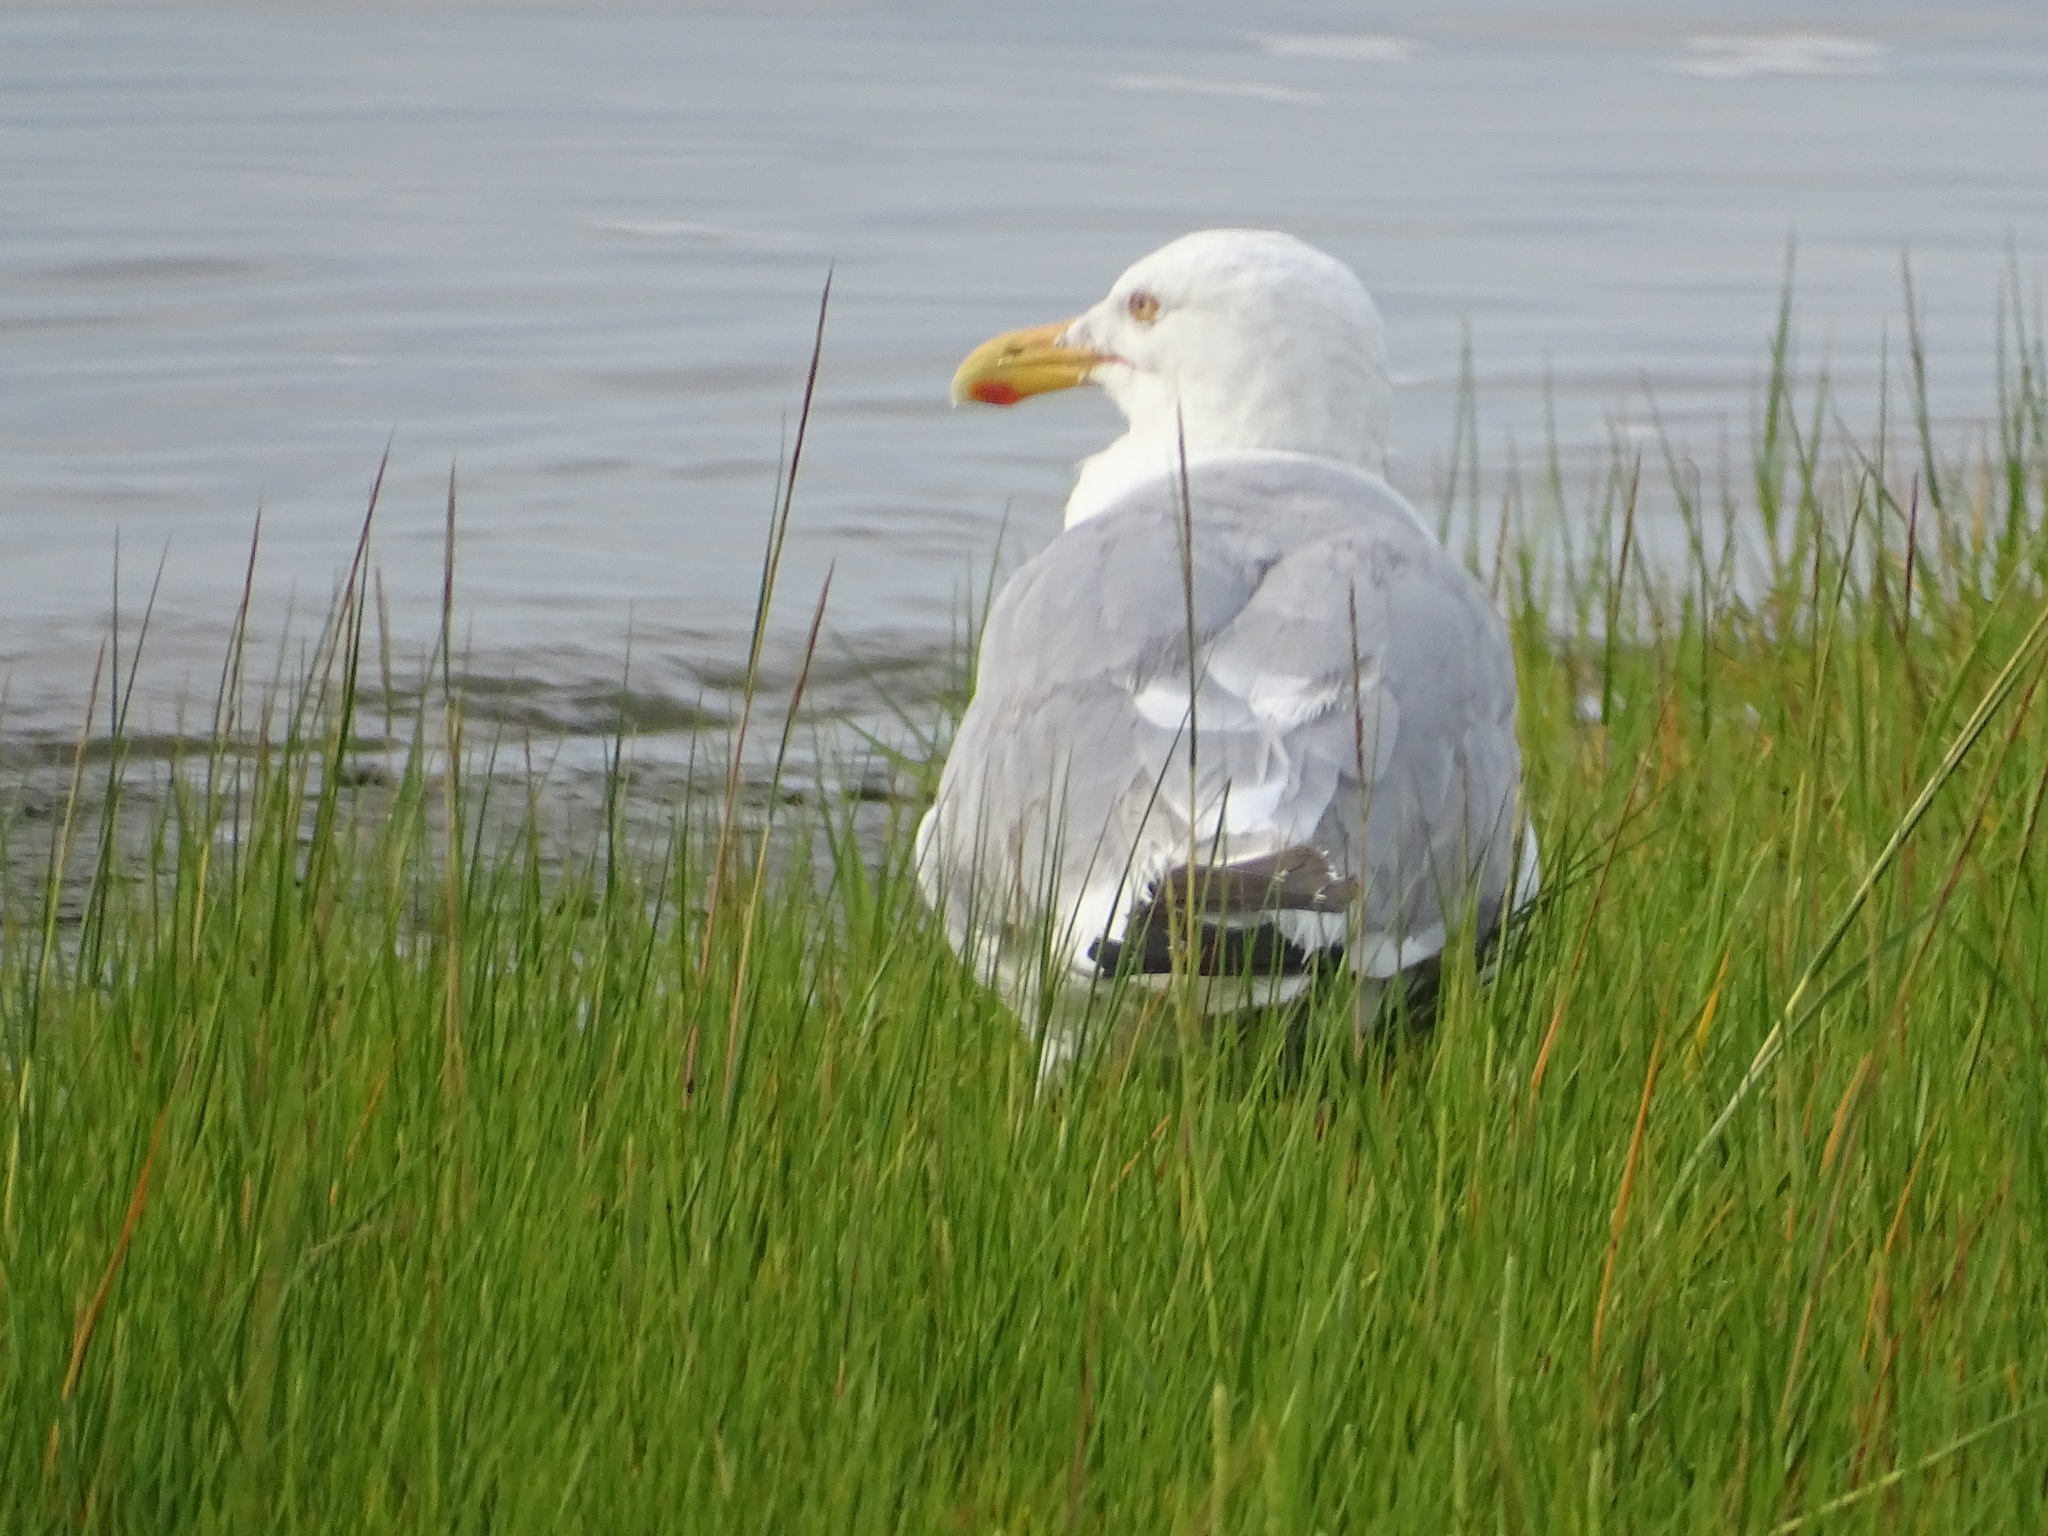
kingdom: Animalia
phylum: Chordata
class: Aves
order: Charadriiformes
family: Laridae
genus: Larus
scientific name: Larus argentatus
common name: Herring gull
